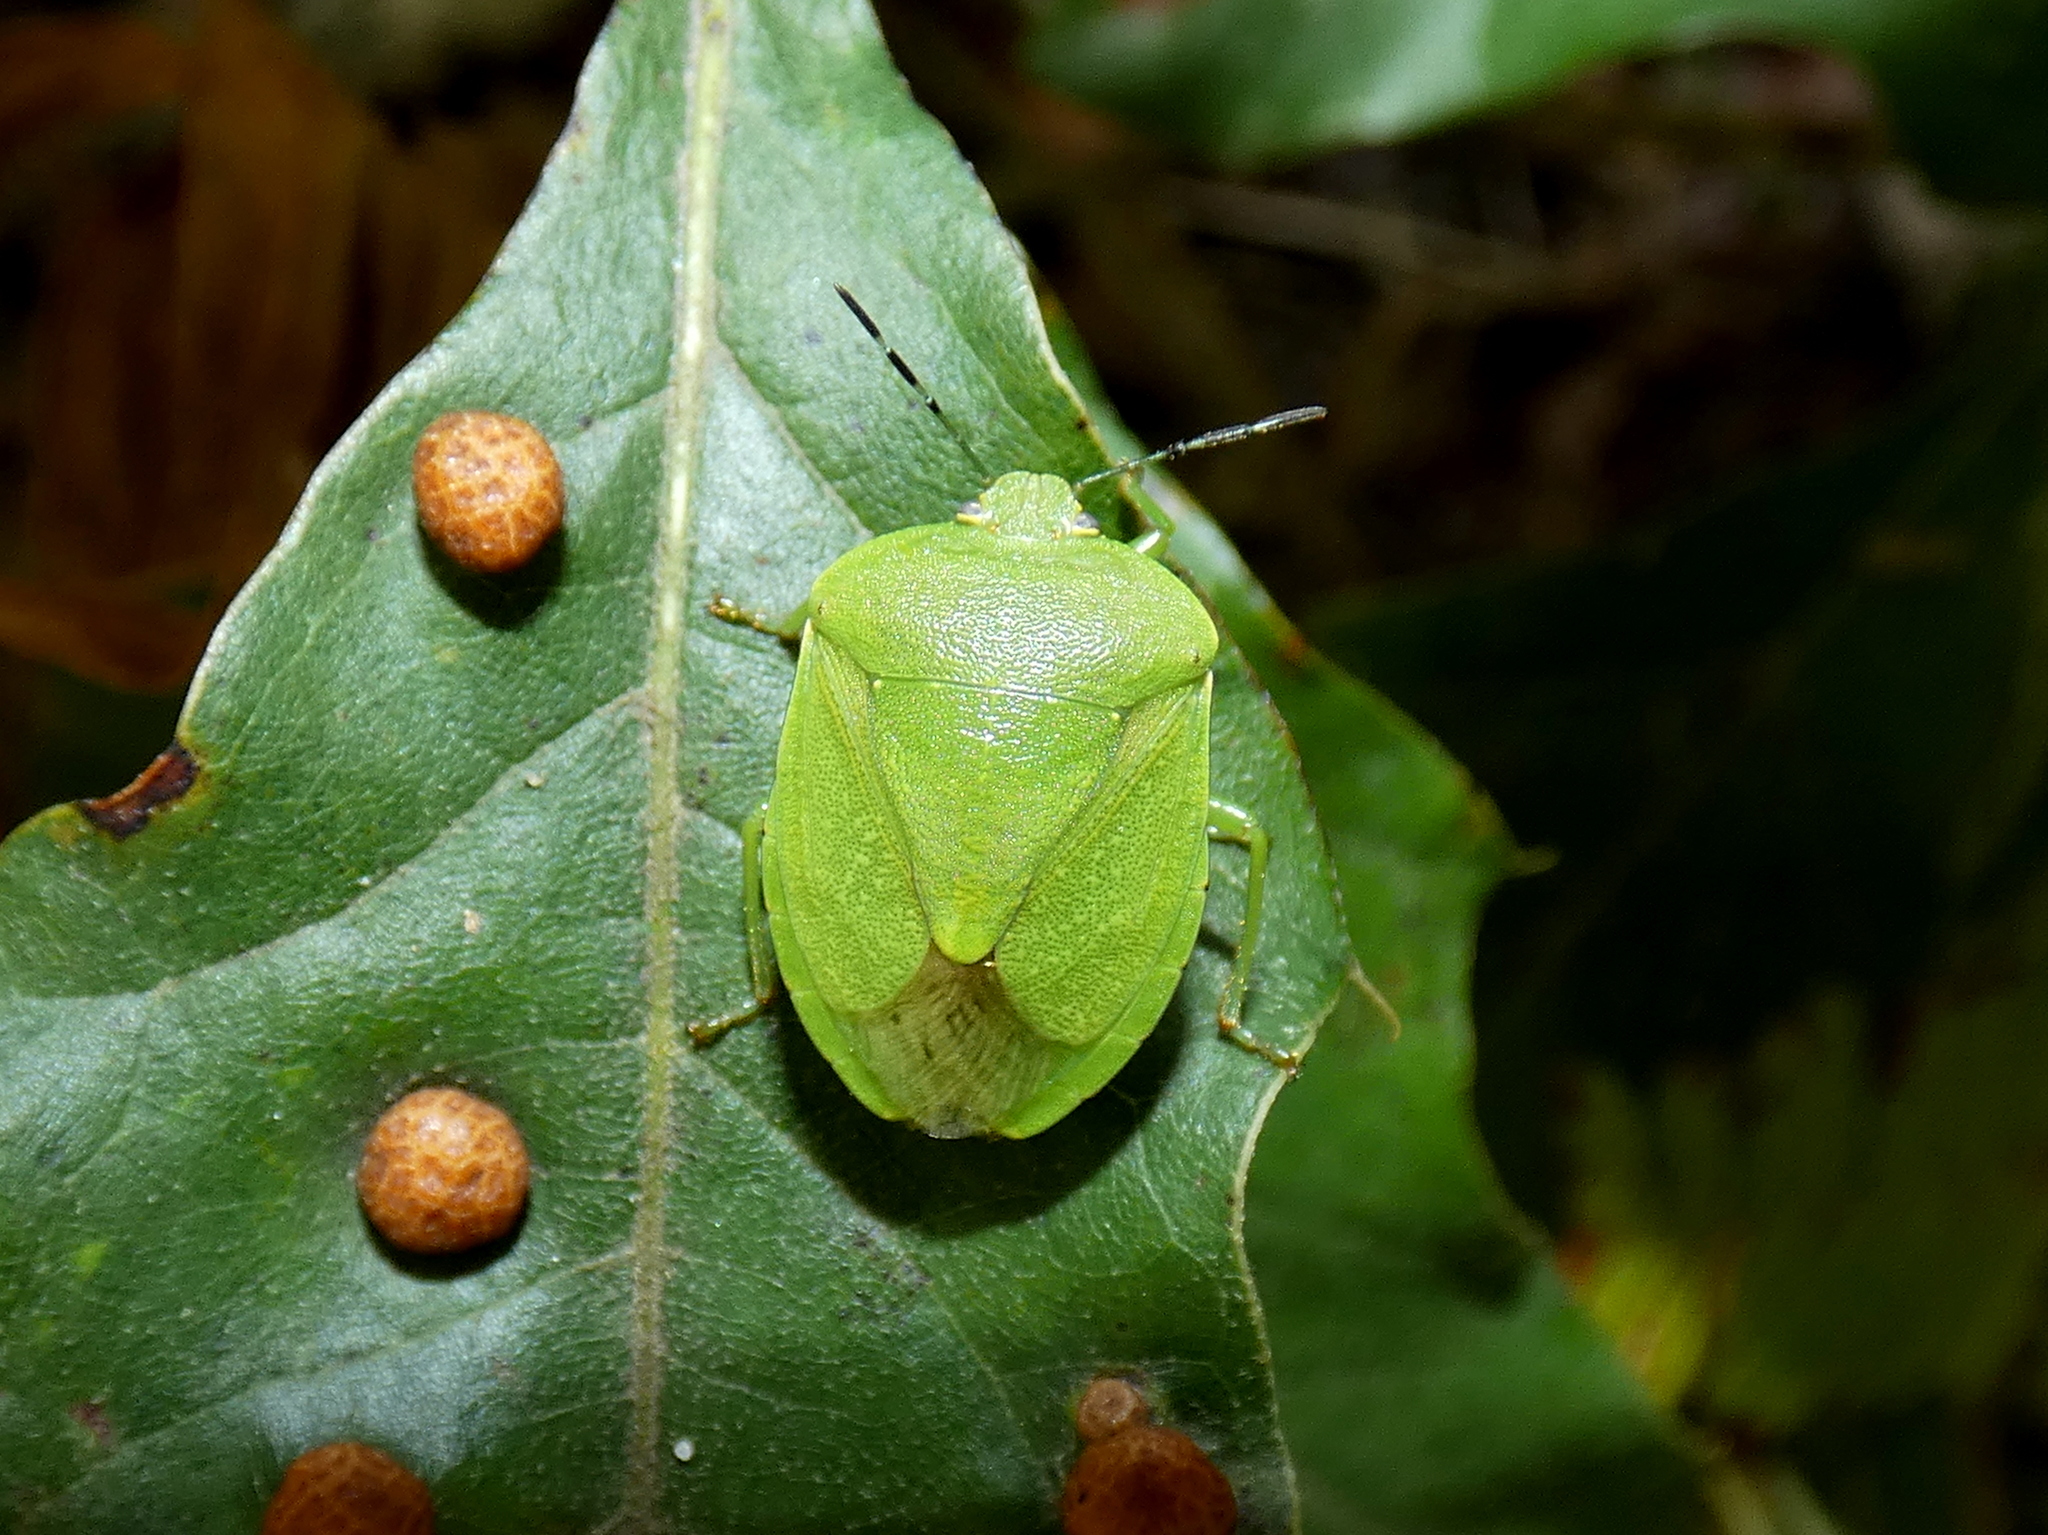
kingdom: Animalia
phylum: Arthropoda
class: Insecta
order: Hemiptera
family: Pentatomidae
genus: Chinavia
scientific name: Chinavia
